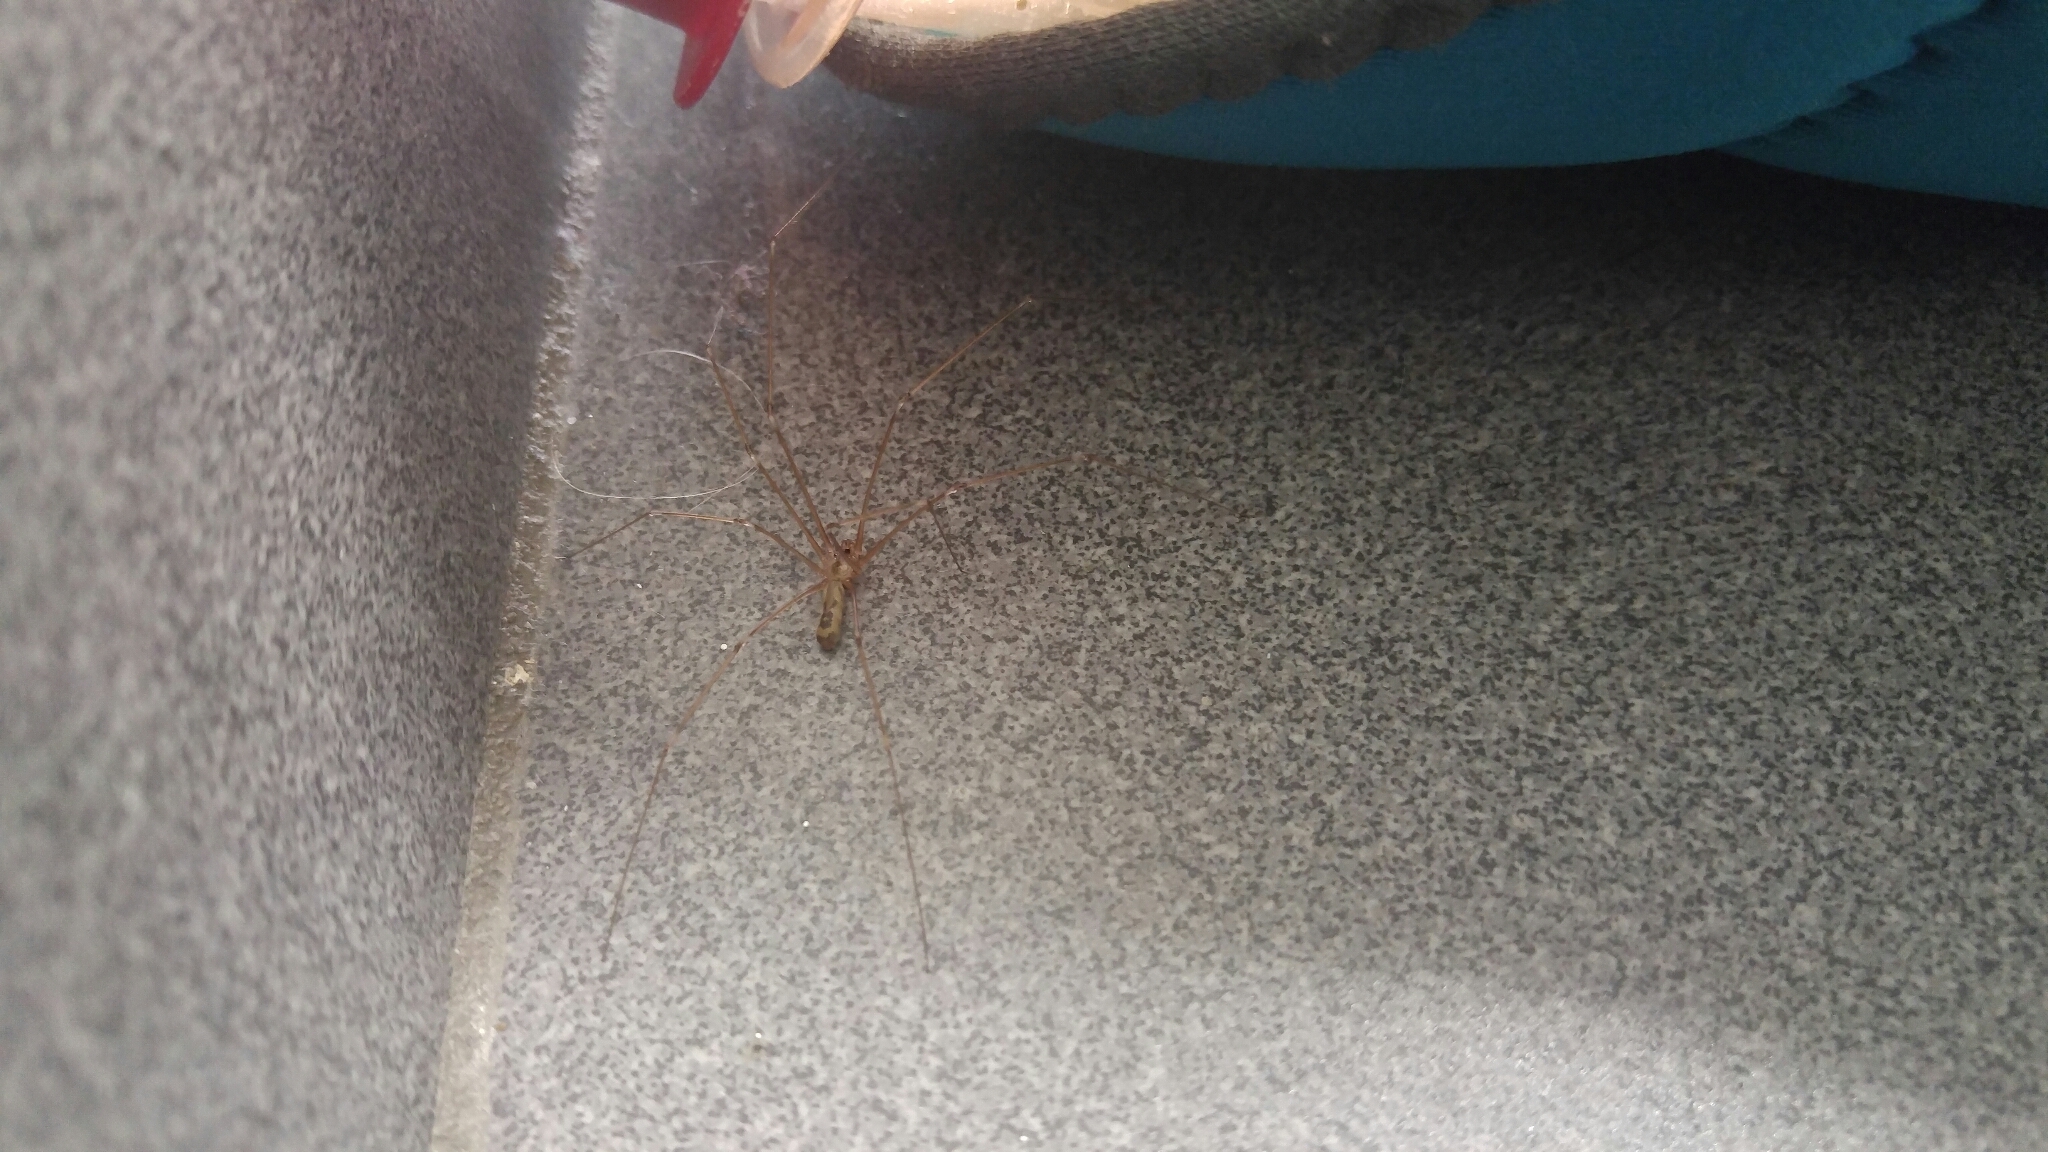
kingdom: Animalia
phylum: Arthropoda
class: Arachnida
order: Araneae
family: Pholcidae
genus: Pholcus
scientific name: Pholcus phalangioides
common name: Longbodied cellar spider
